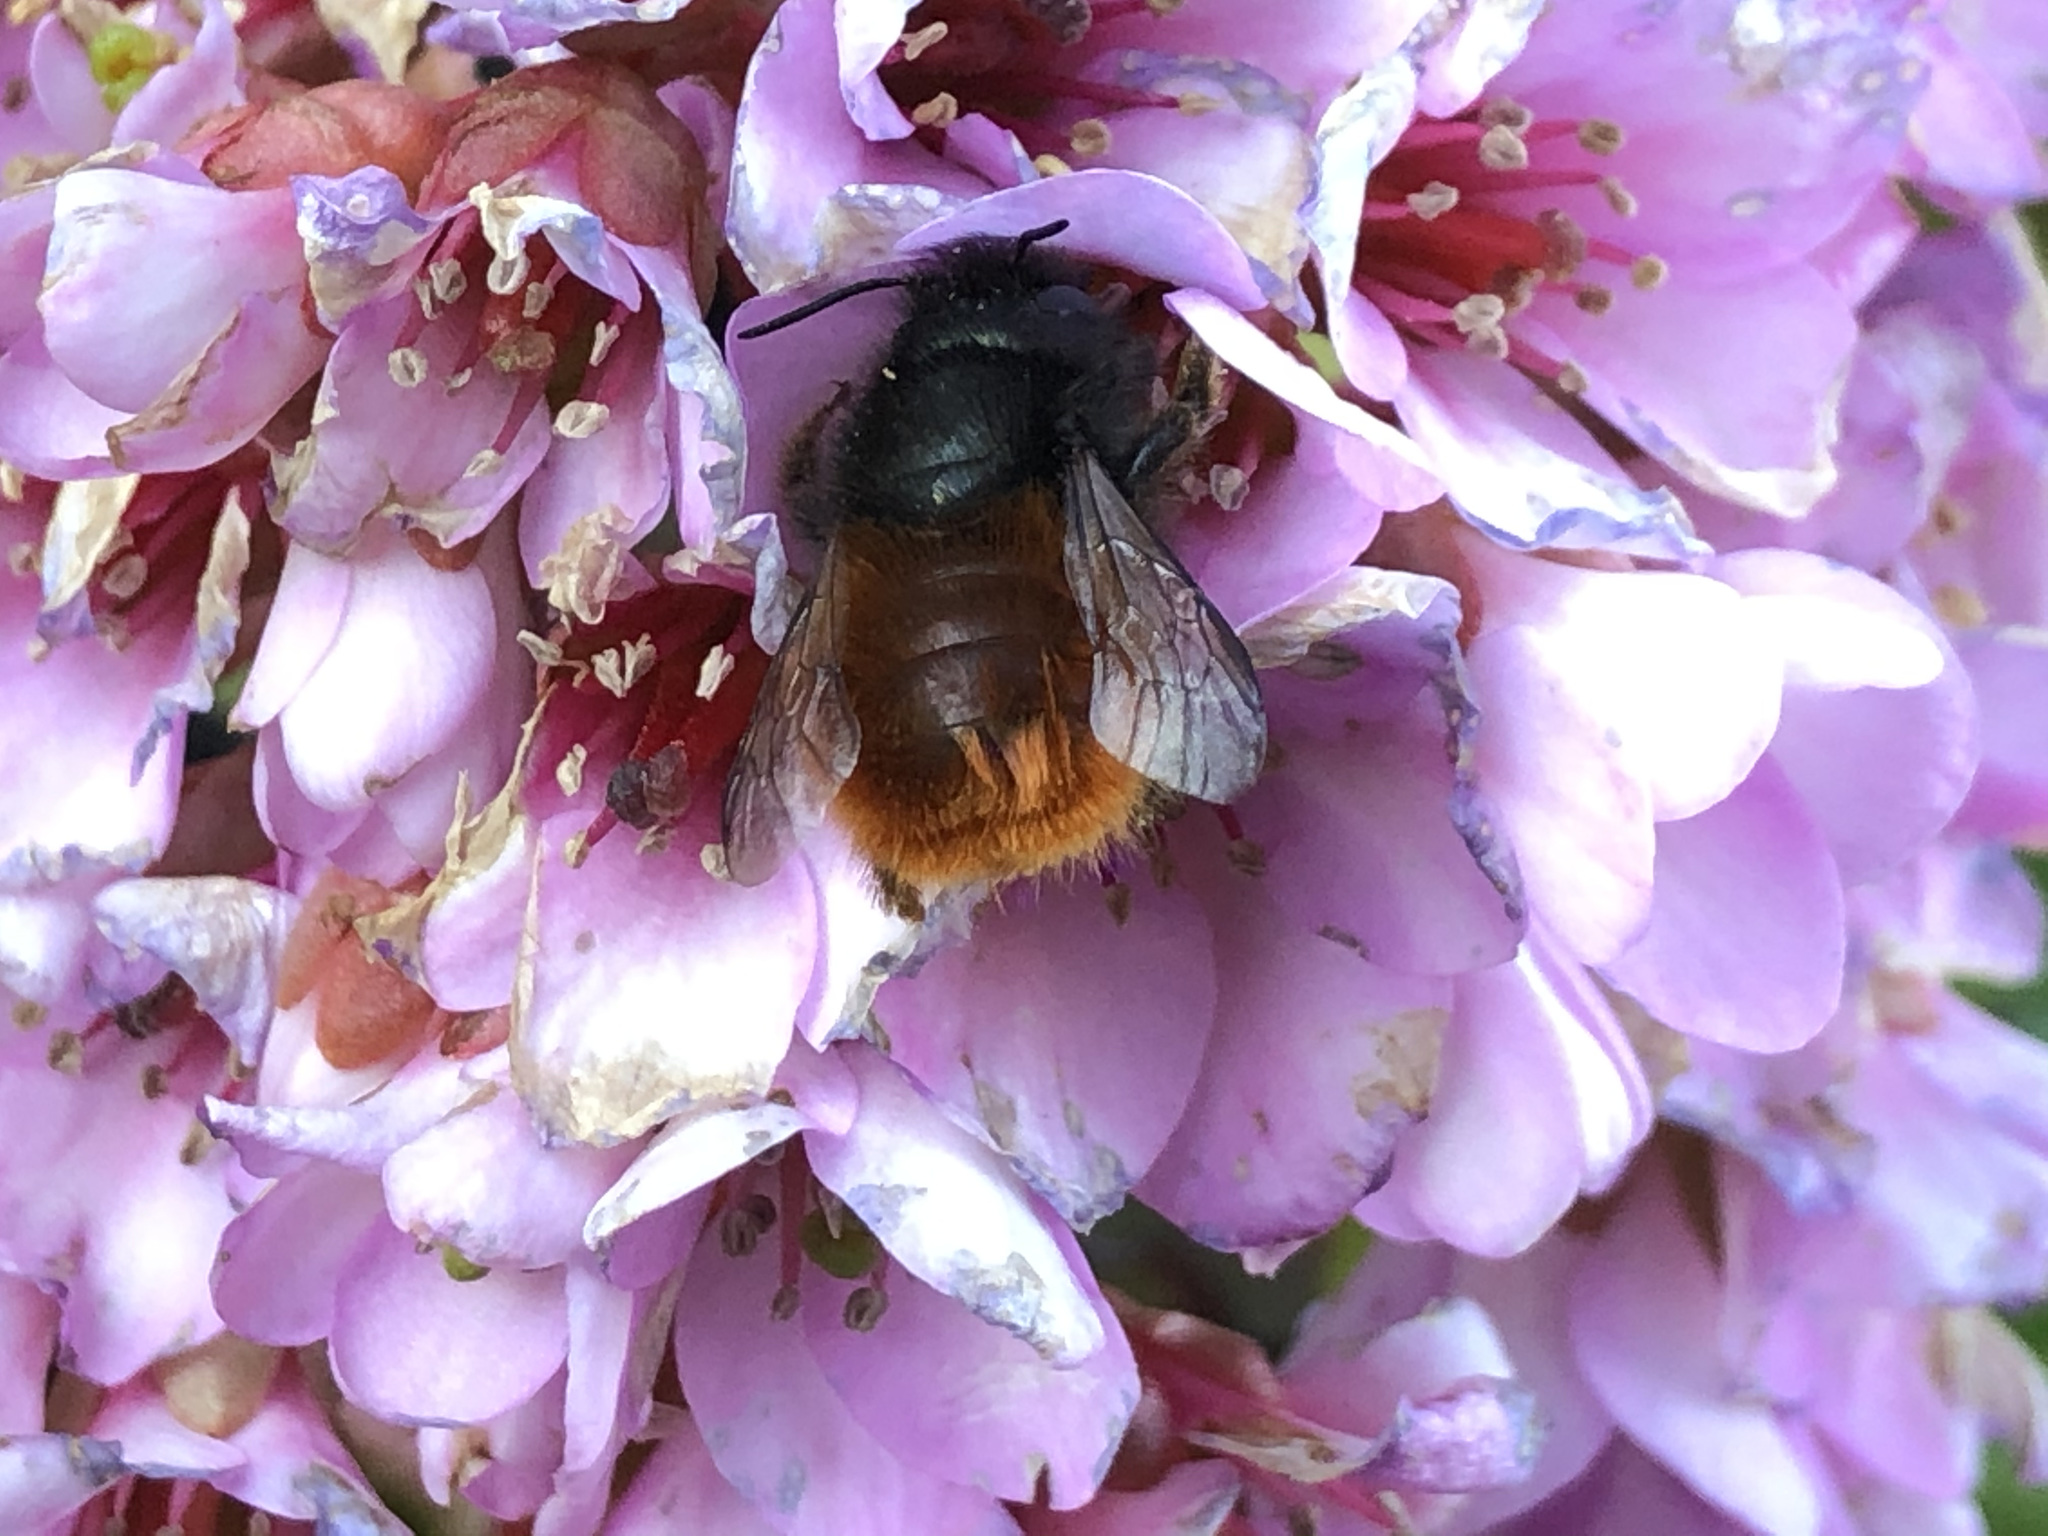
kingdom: Animalia
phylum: Arthropoda
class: Insecta
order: Hymenoptera
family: Megachilidae
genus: Osmia
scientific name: Osmia cornuta
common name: Mason bee
